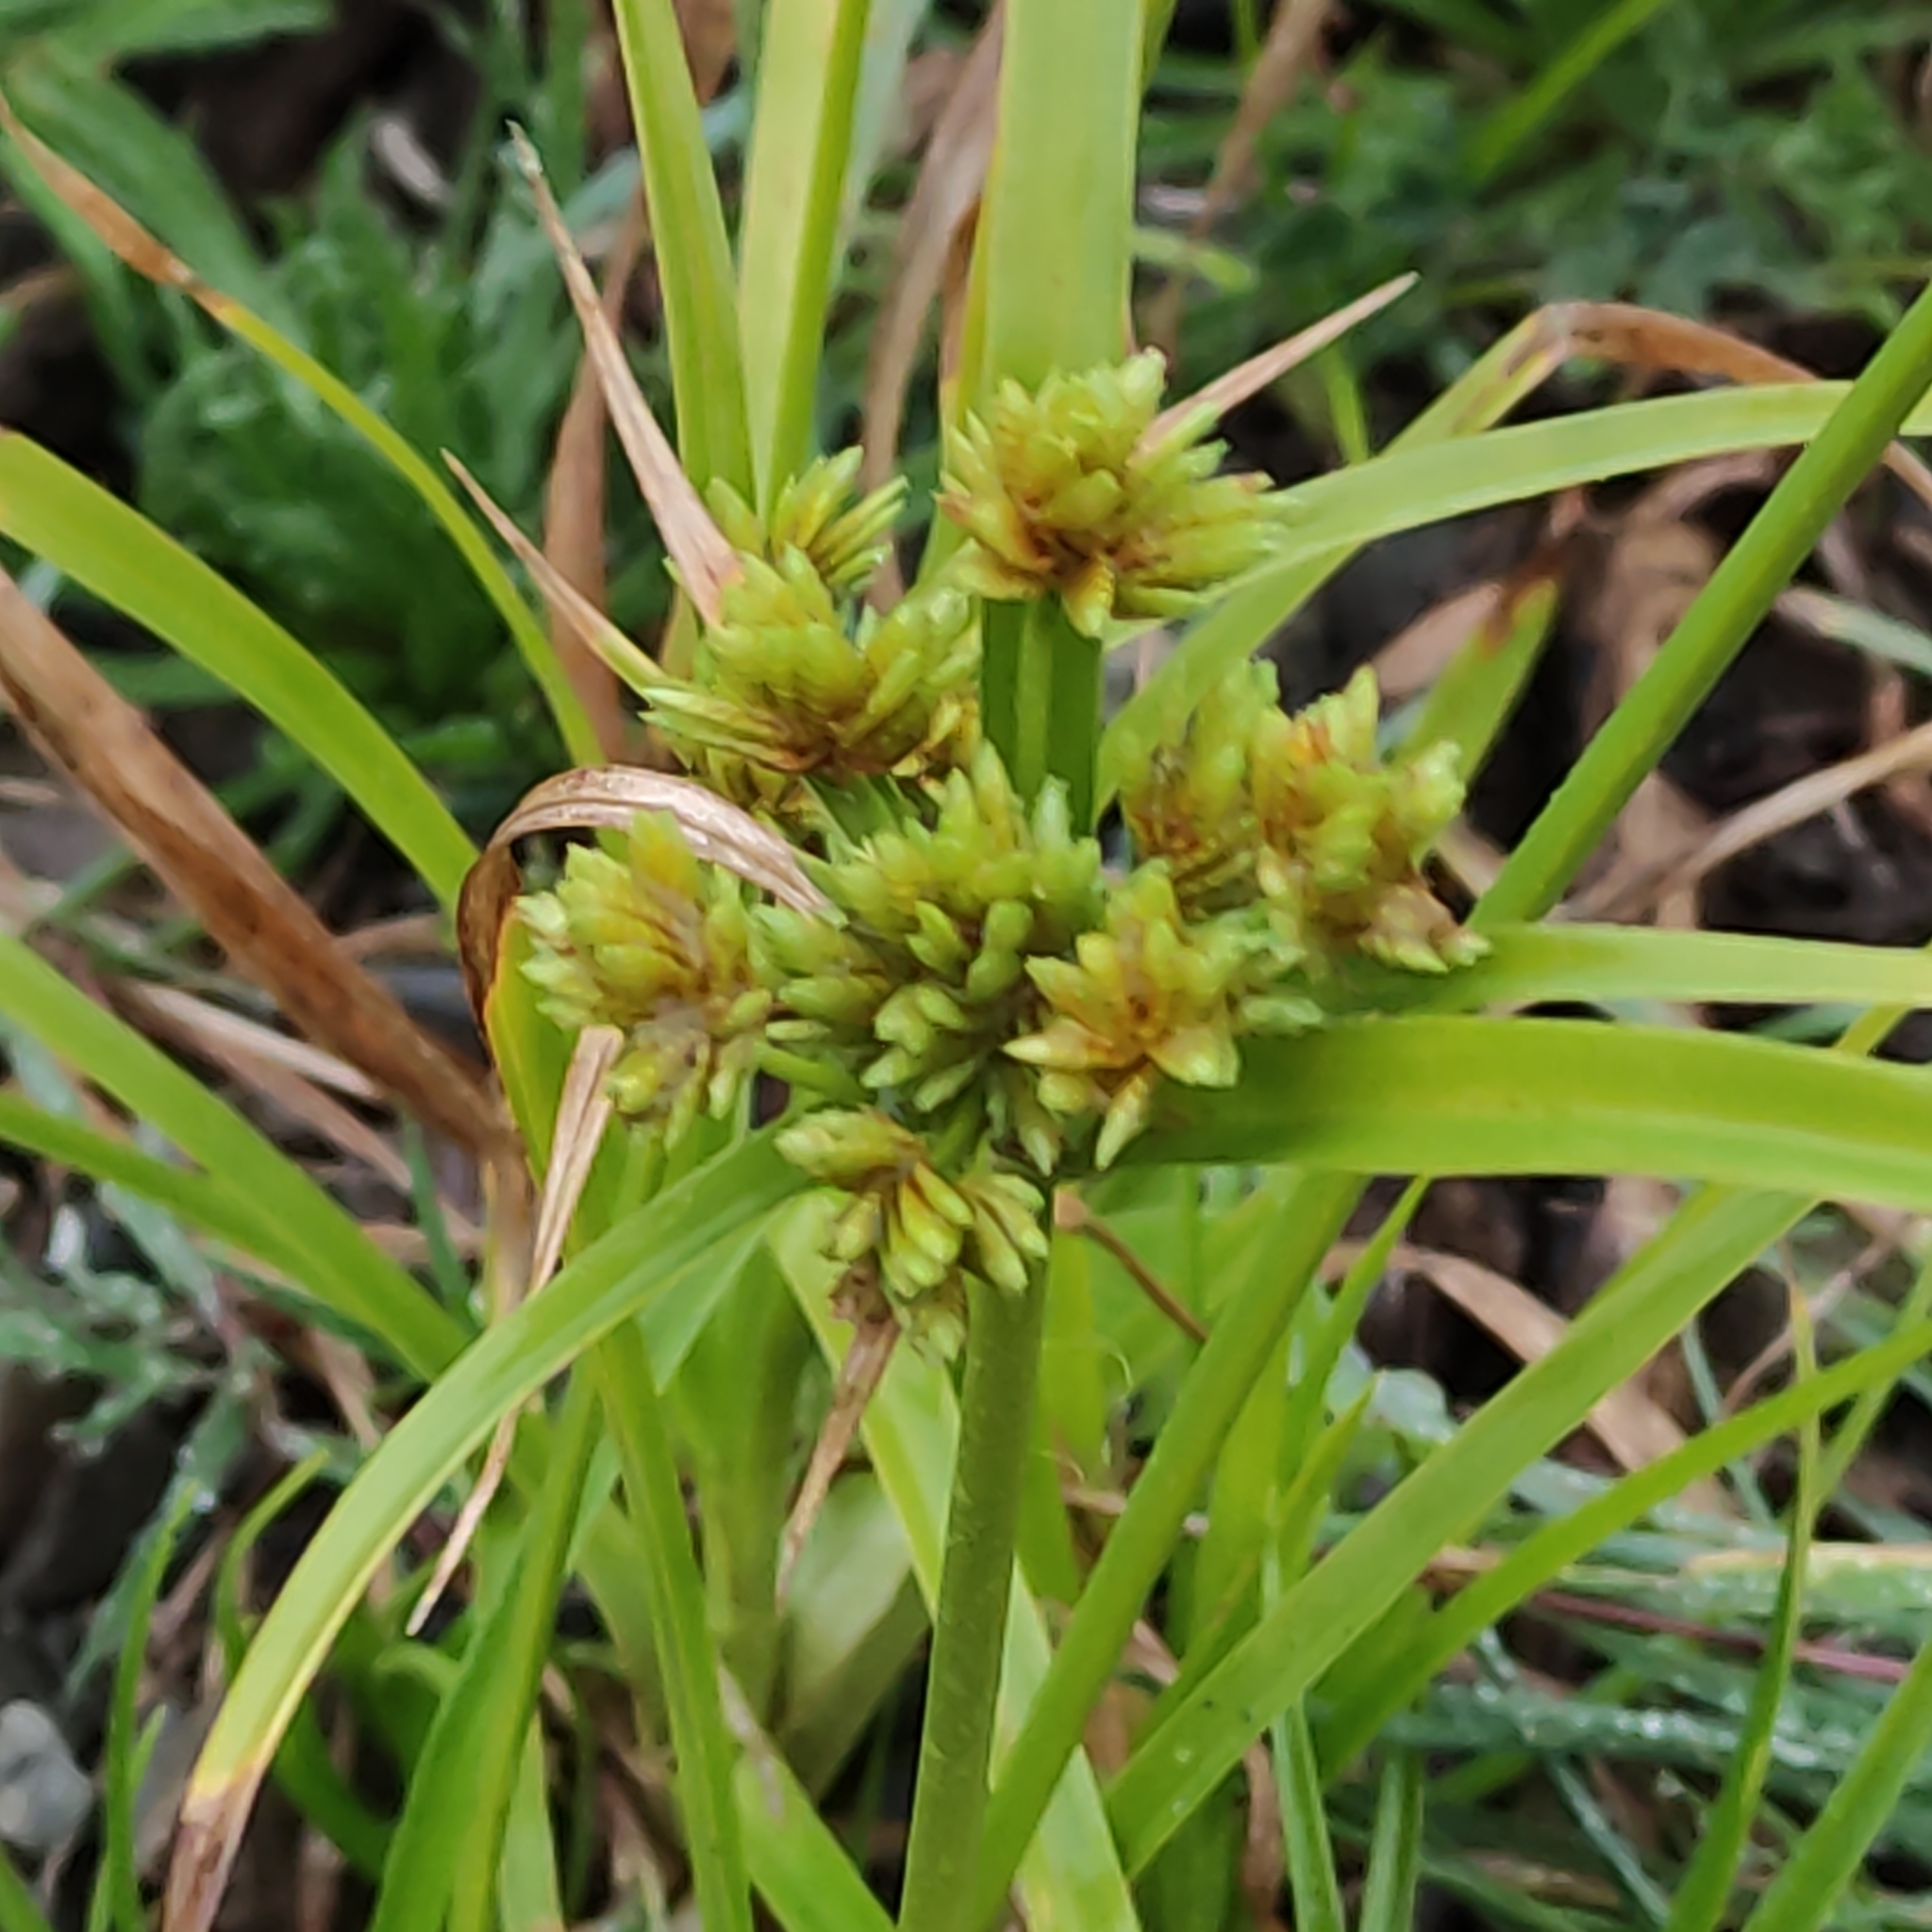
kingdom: Plantae
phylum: Tracheophyta
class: Liliopsida
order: Poales
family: Cyperaceae
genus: Cyperus
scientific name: Cyperus eragrostis
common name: Tall flatsedge
